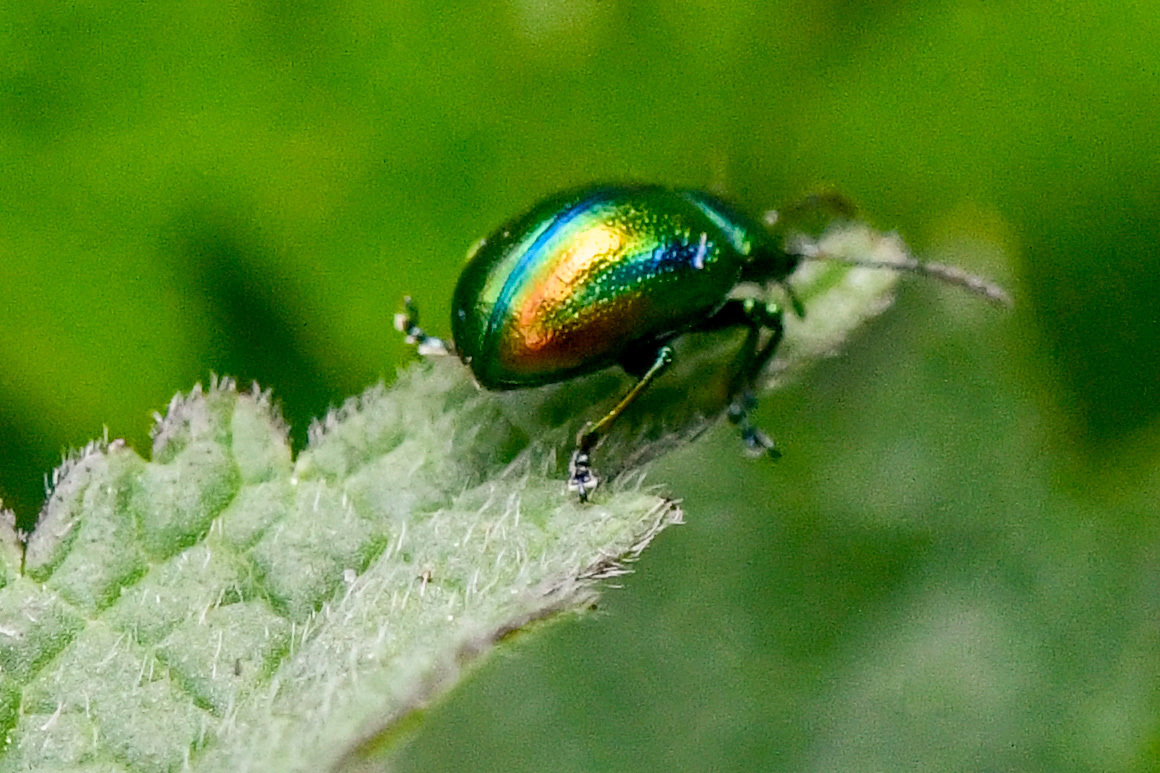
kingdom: Animalia
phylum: Arthropoda
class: Insecta
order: Coleoptera
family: Chrysomelidae
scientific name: Chrysomelidae
